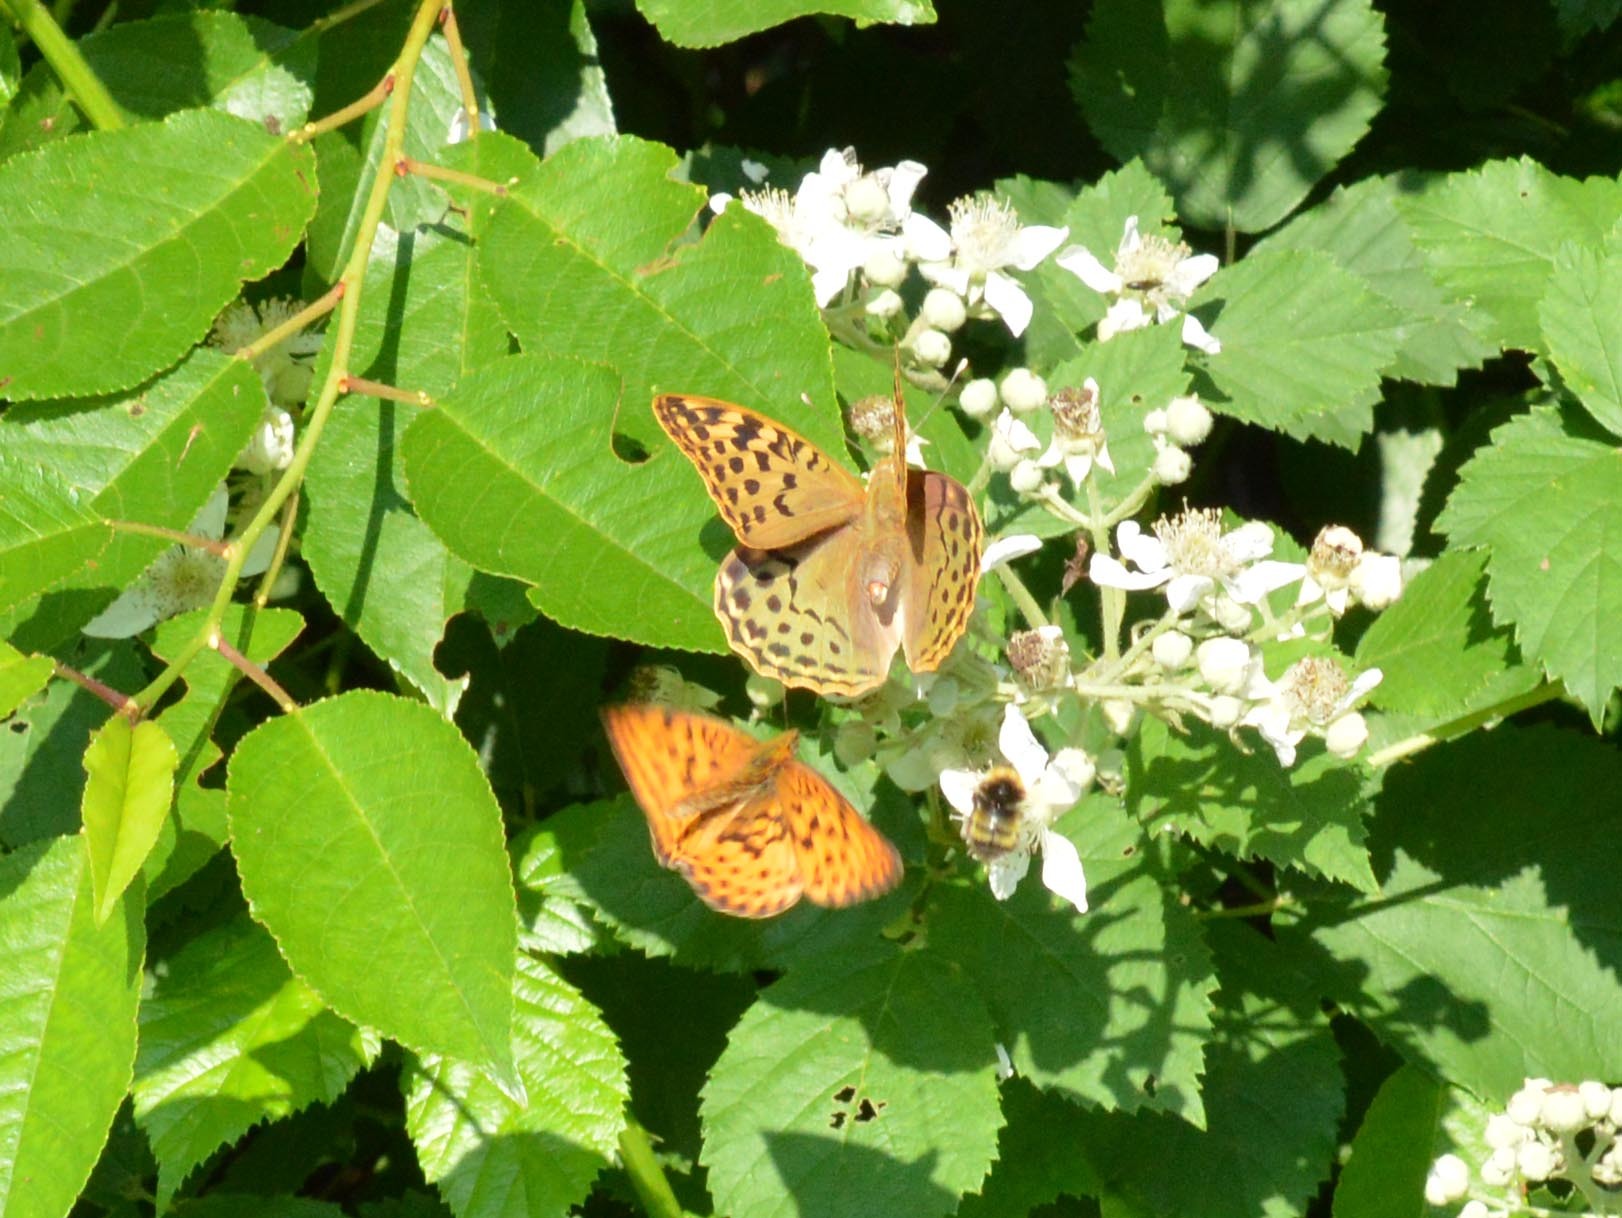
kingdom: Animalia
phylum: Arthropoda
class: Insecta
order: Lepidoptera
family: Nymphalidae
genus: Damora
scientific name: Damora pandora
